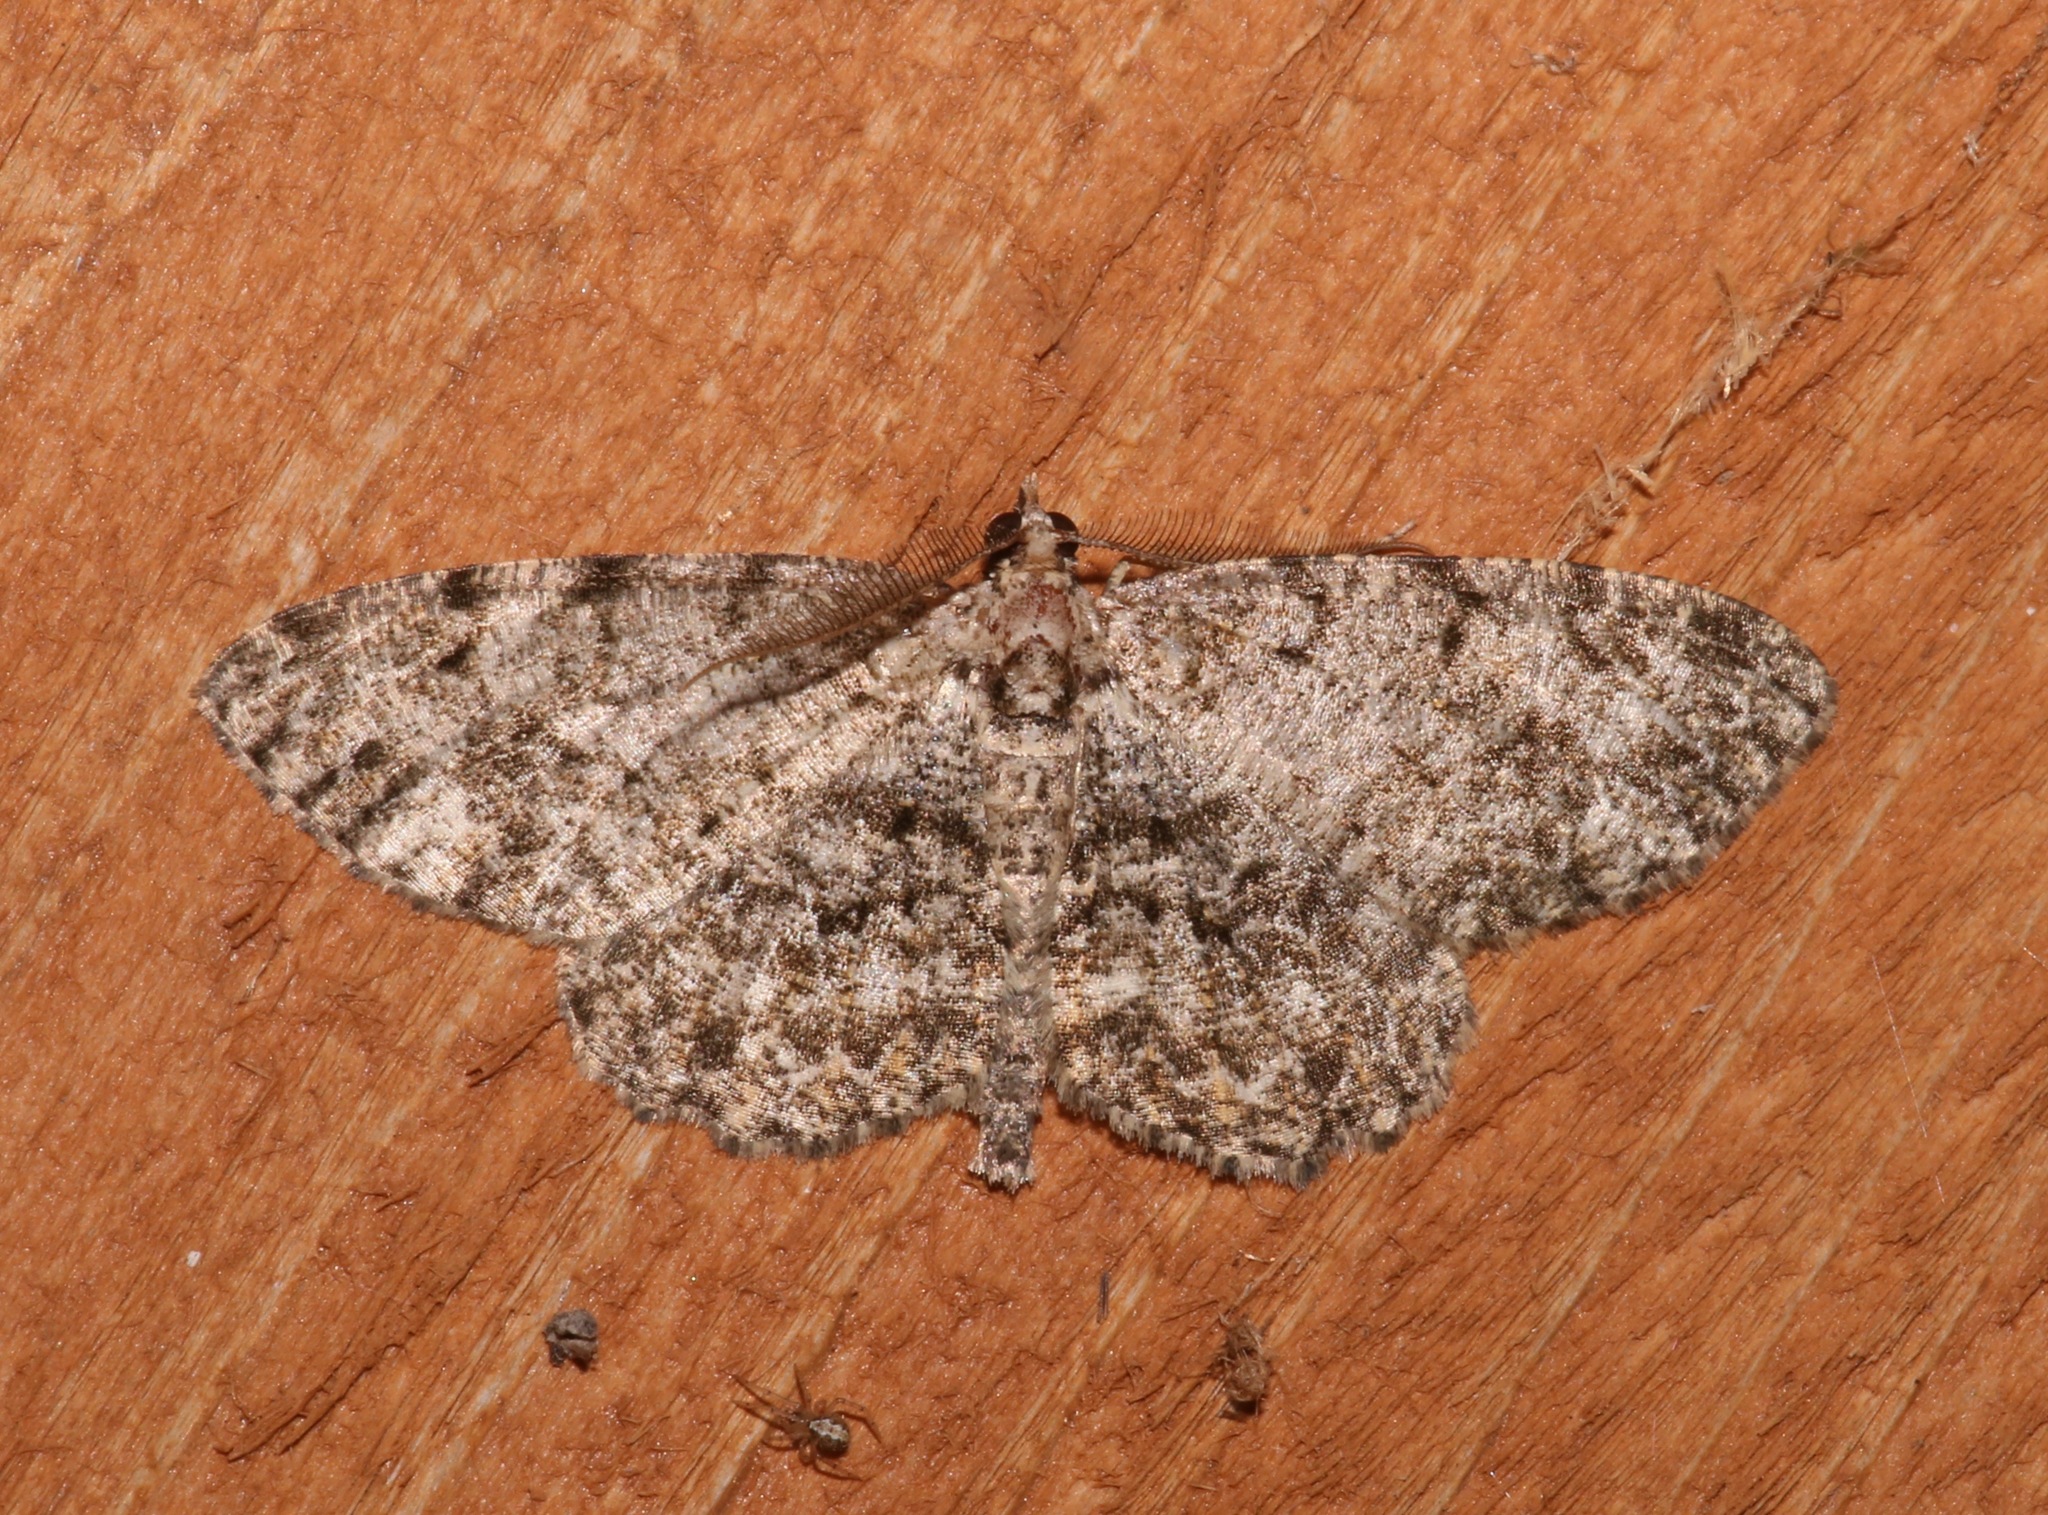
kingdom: Animalia
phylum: Arthropoda
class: Insecta
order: Lepidoptera
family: Geometridae
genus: Protoboarmia
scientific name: Protoboarmia porcelaria
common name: Porcelain gray
